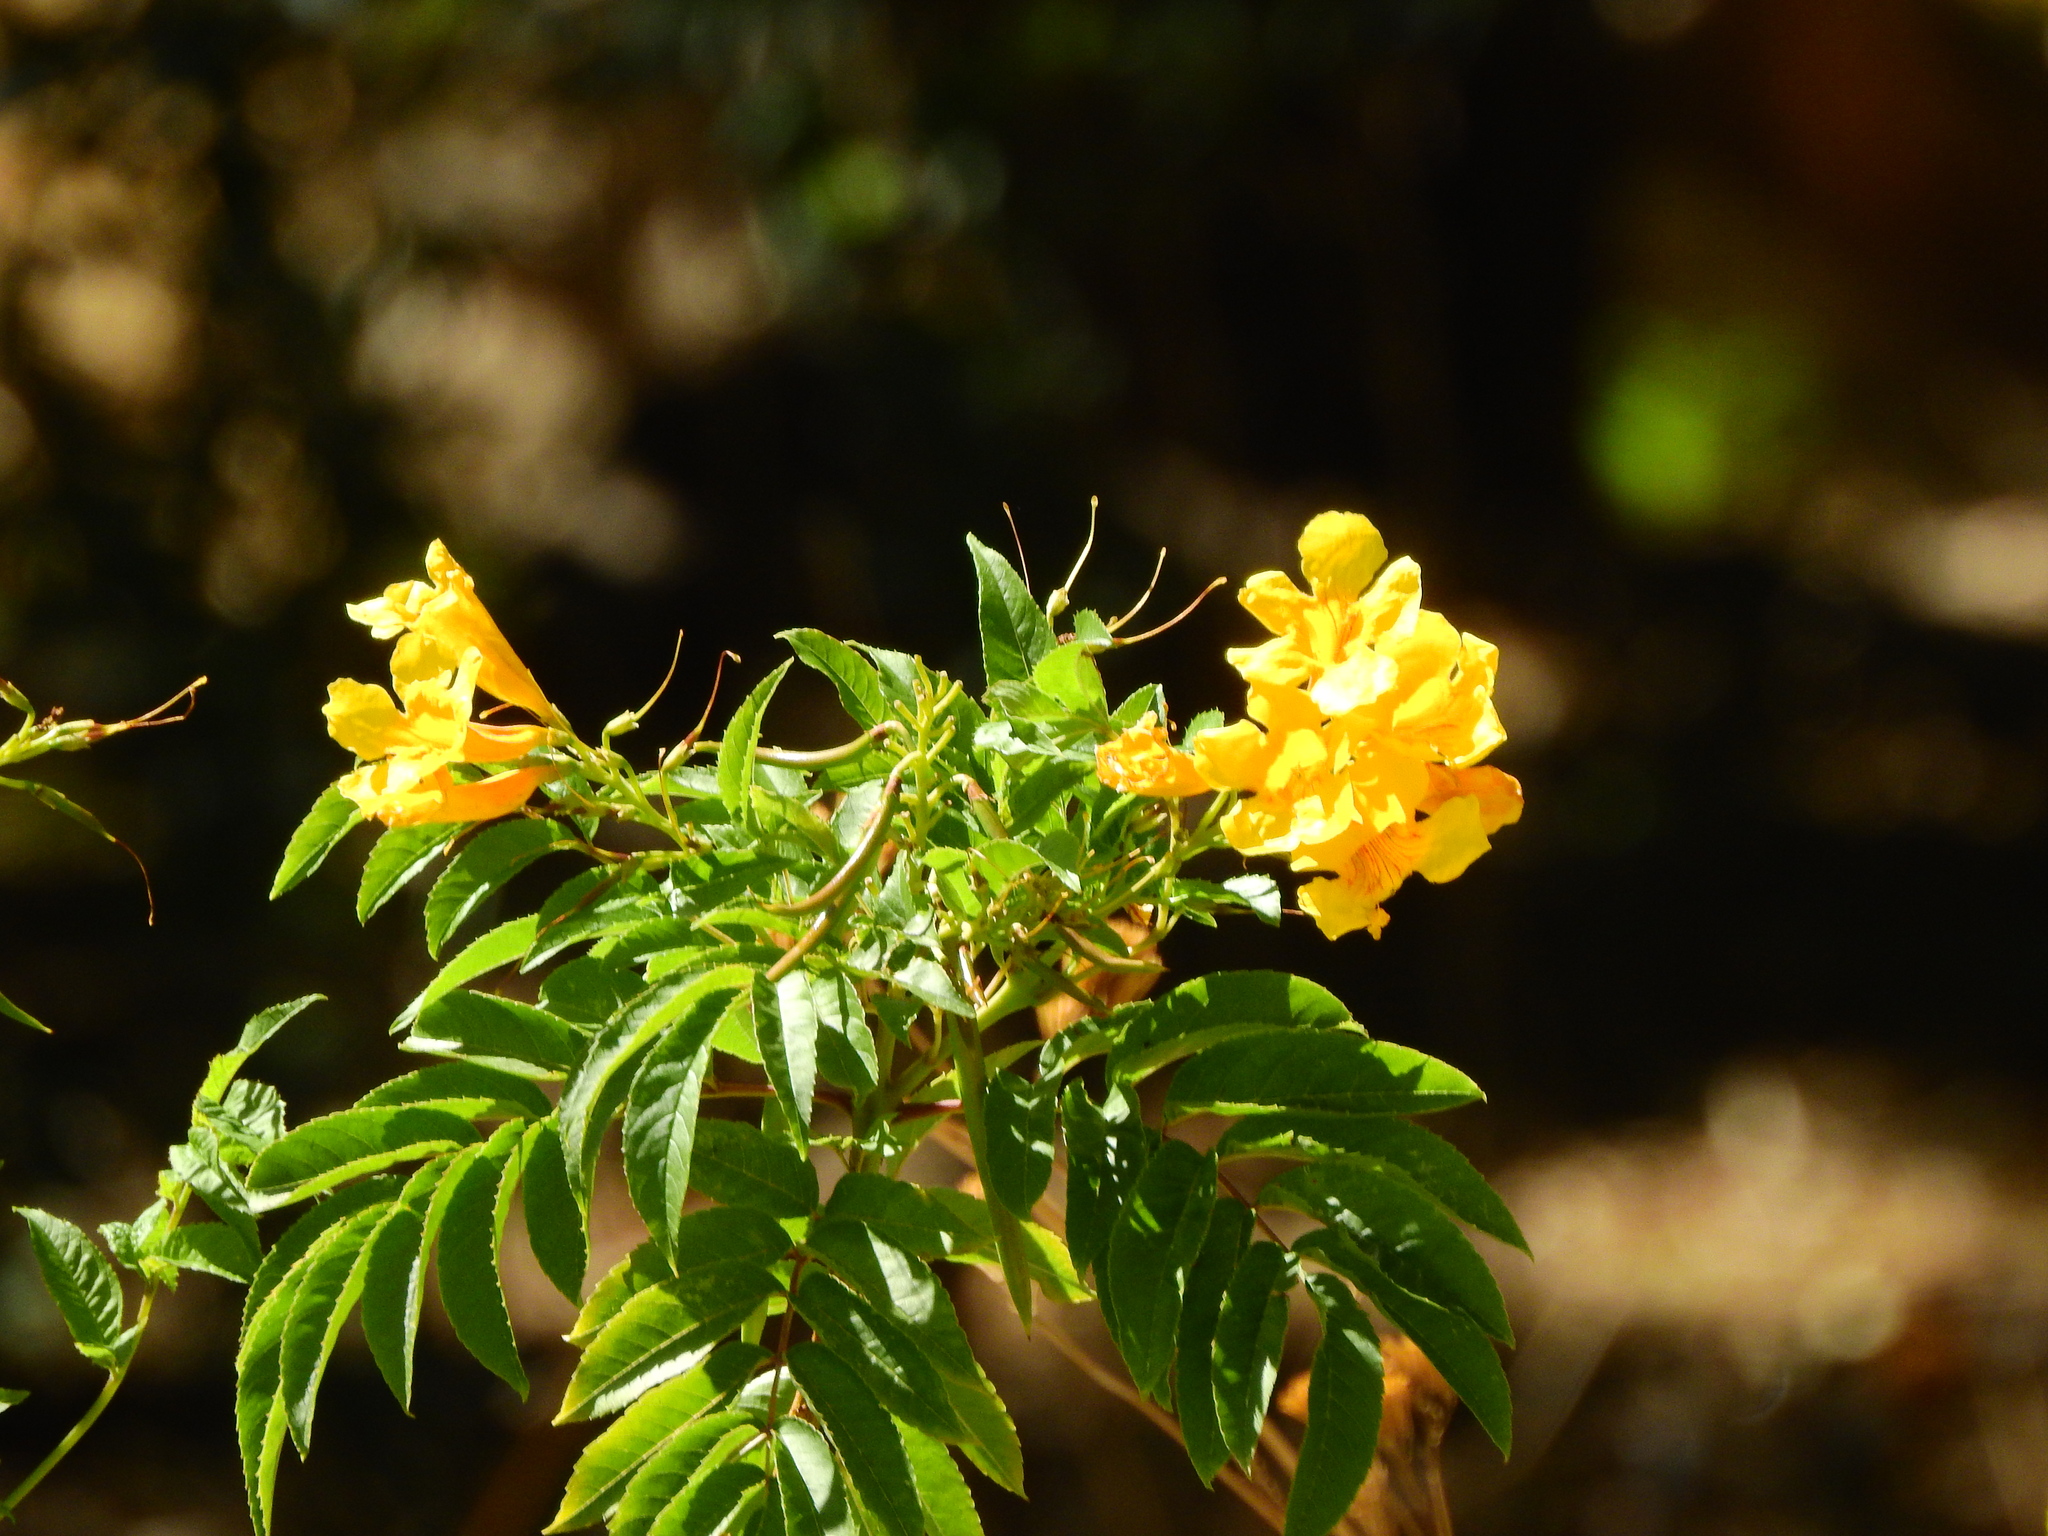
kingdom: Plantae
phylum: Tracheophyta
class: Magnoliopsida
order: Lamiales
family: Bignoniaceae
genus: Tecoma
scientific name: Tecoma stans
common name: Yellow trumpetbush
